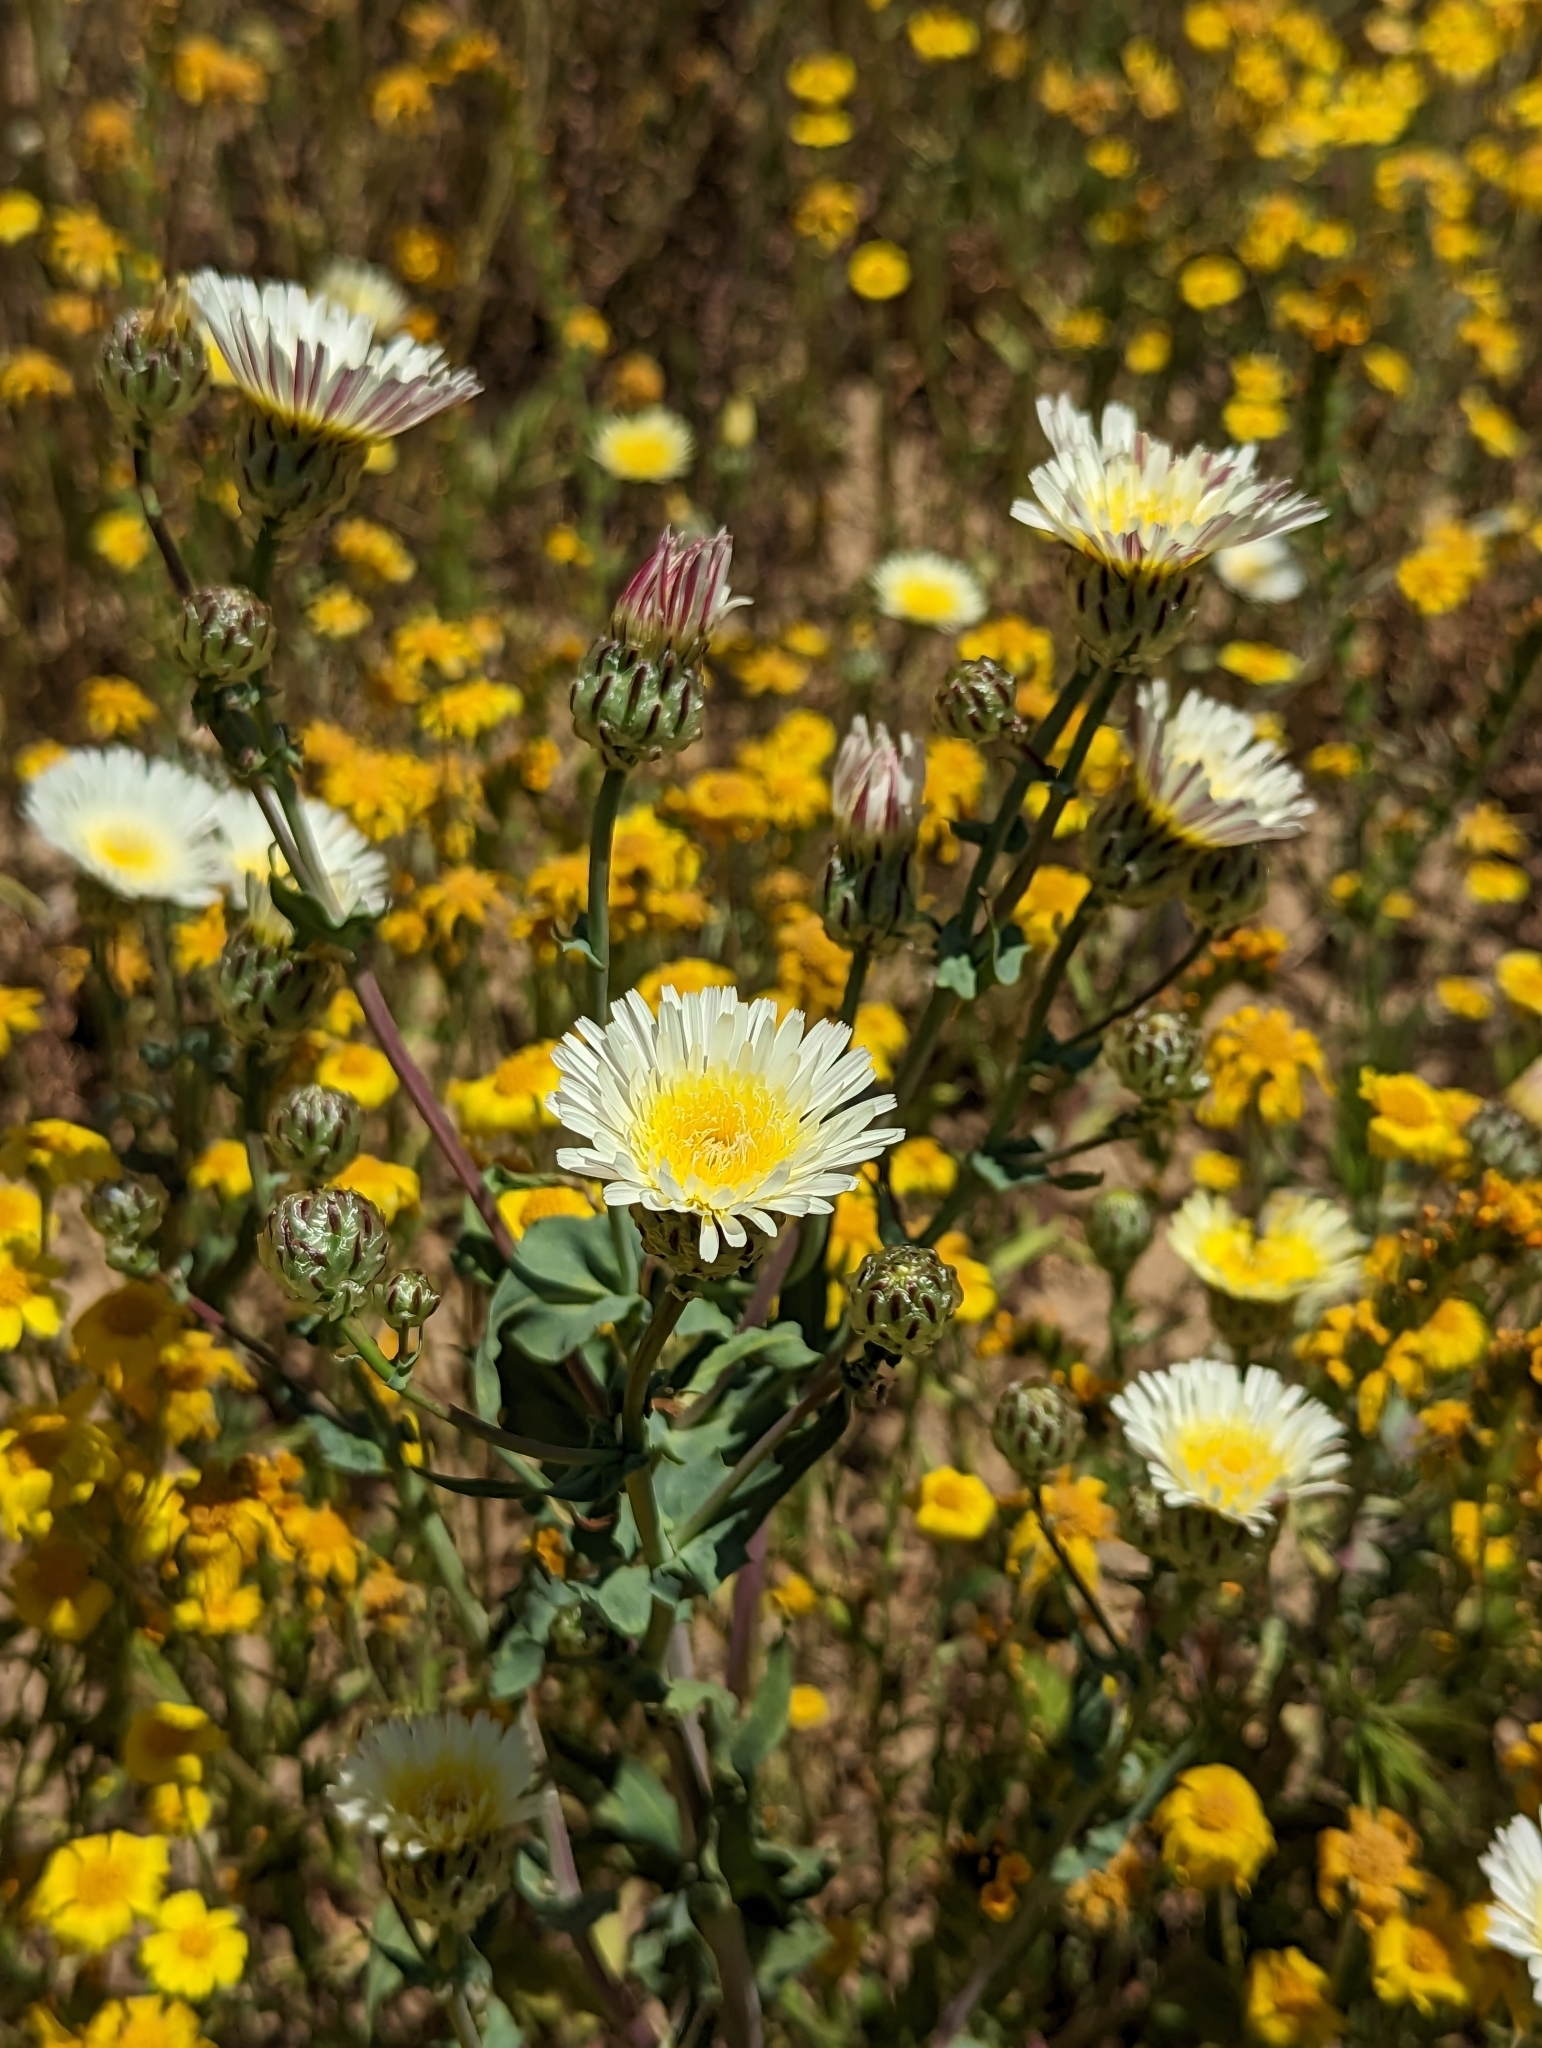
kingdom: Plantae
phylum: Tracheophyta
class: Magnoliopsida
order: Asterales
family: Asteraceae
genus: Malacothrix
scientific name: Malacothrix coulteri
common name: Snake's-head
